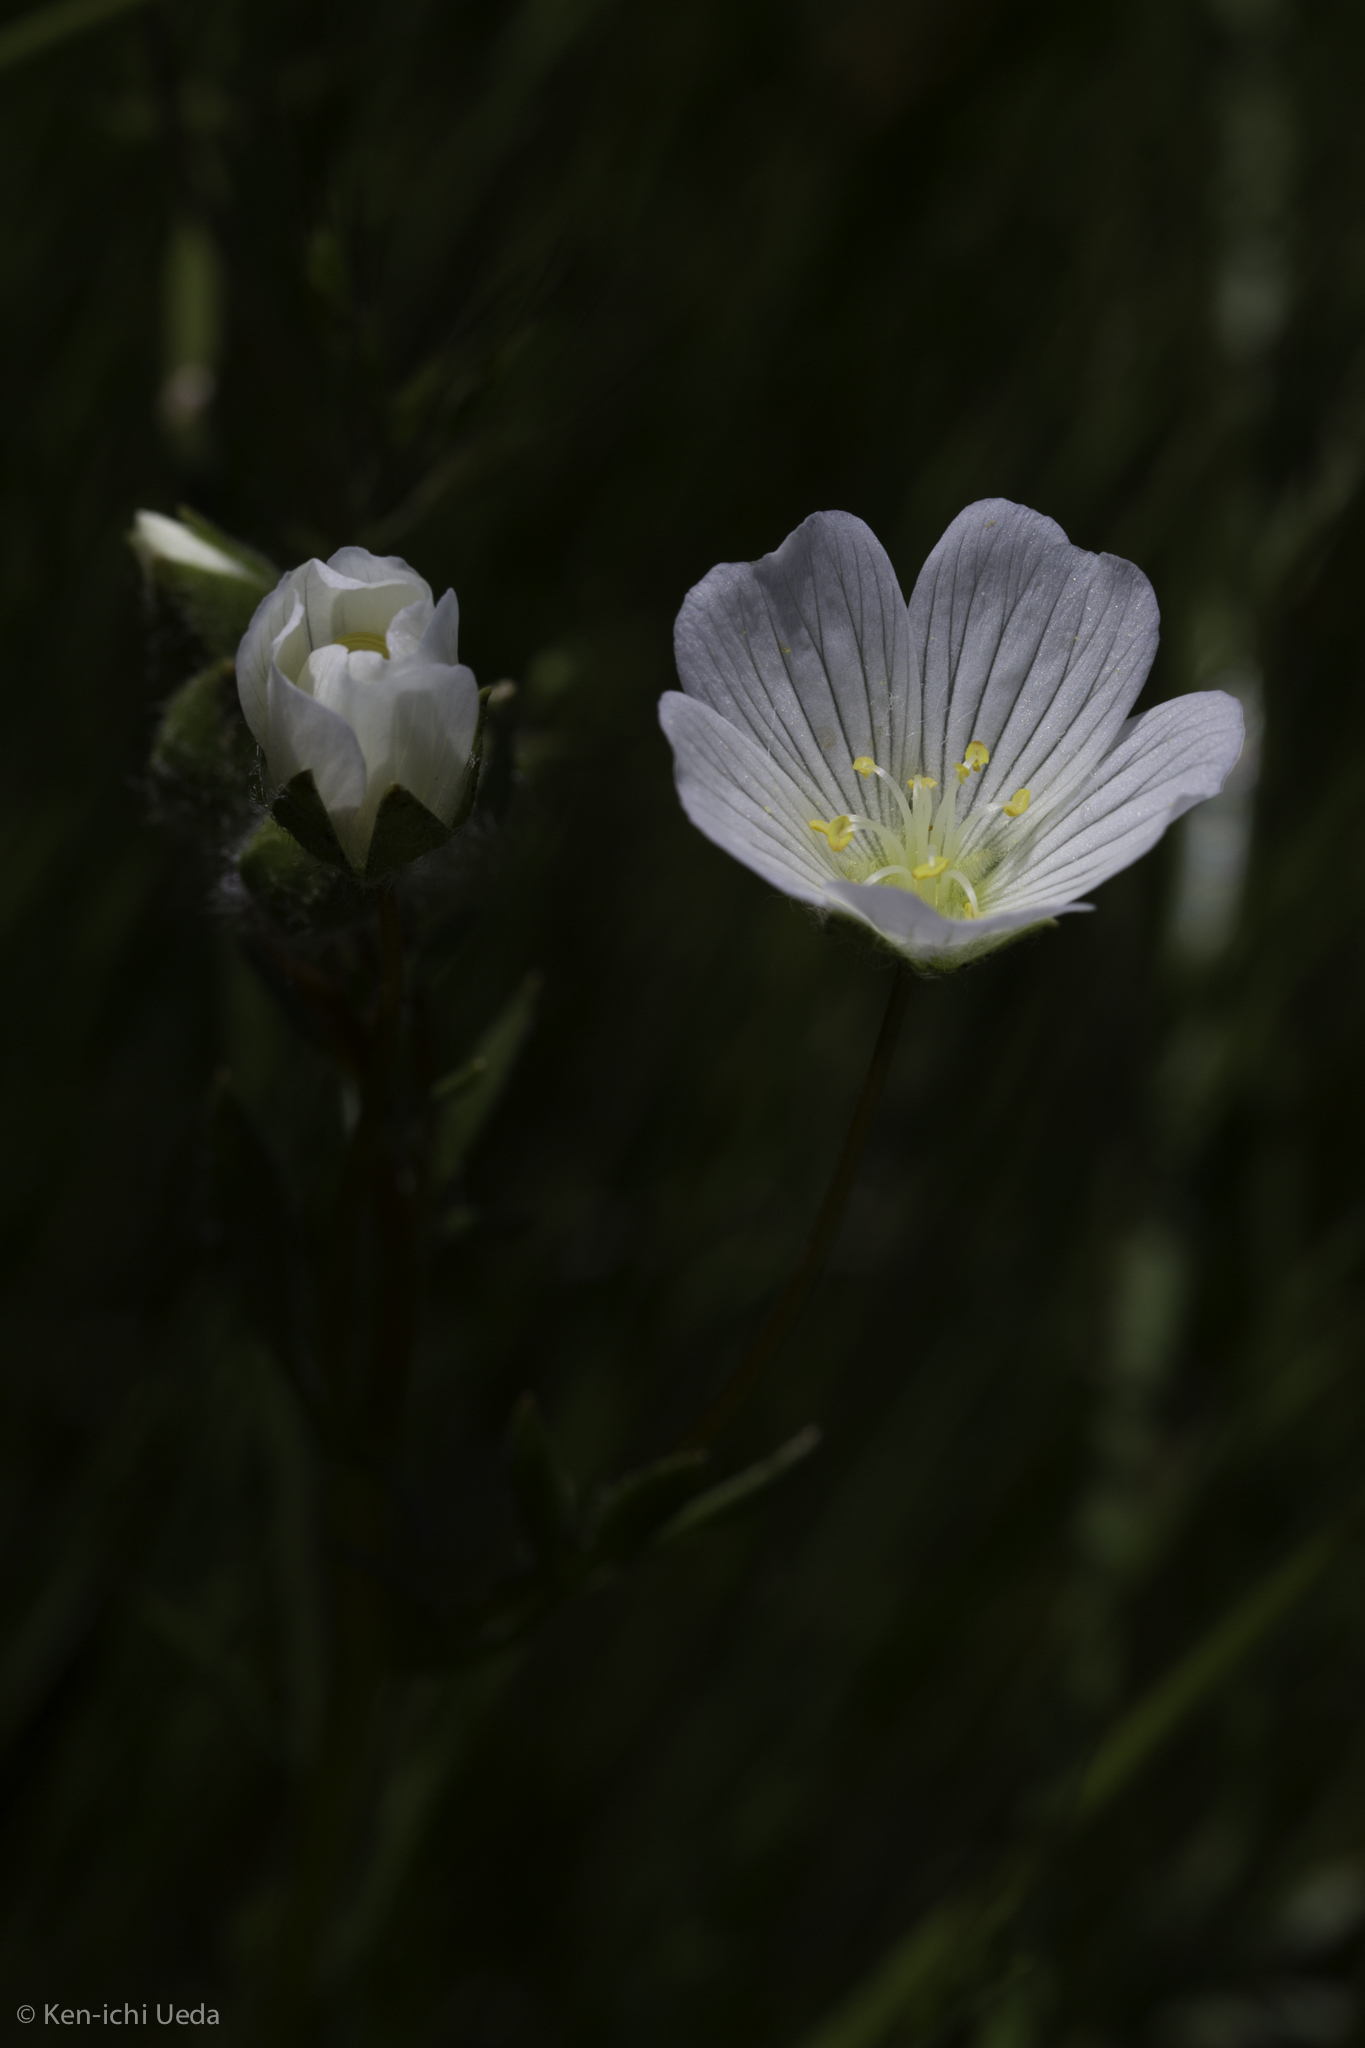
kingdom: Plantae
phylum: Tracheophyta
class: Magnoliopsida
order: Brassicales
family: Limnanthaceae
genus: Limnanthes
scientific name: Limnanthes alba
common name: Meadowfoam
